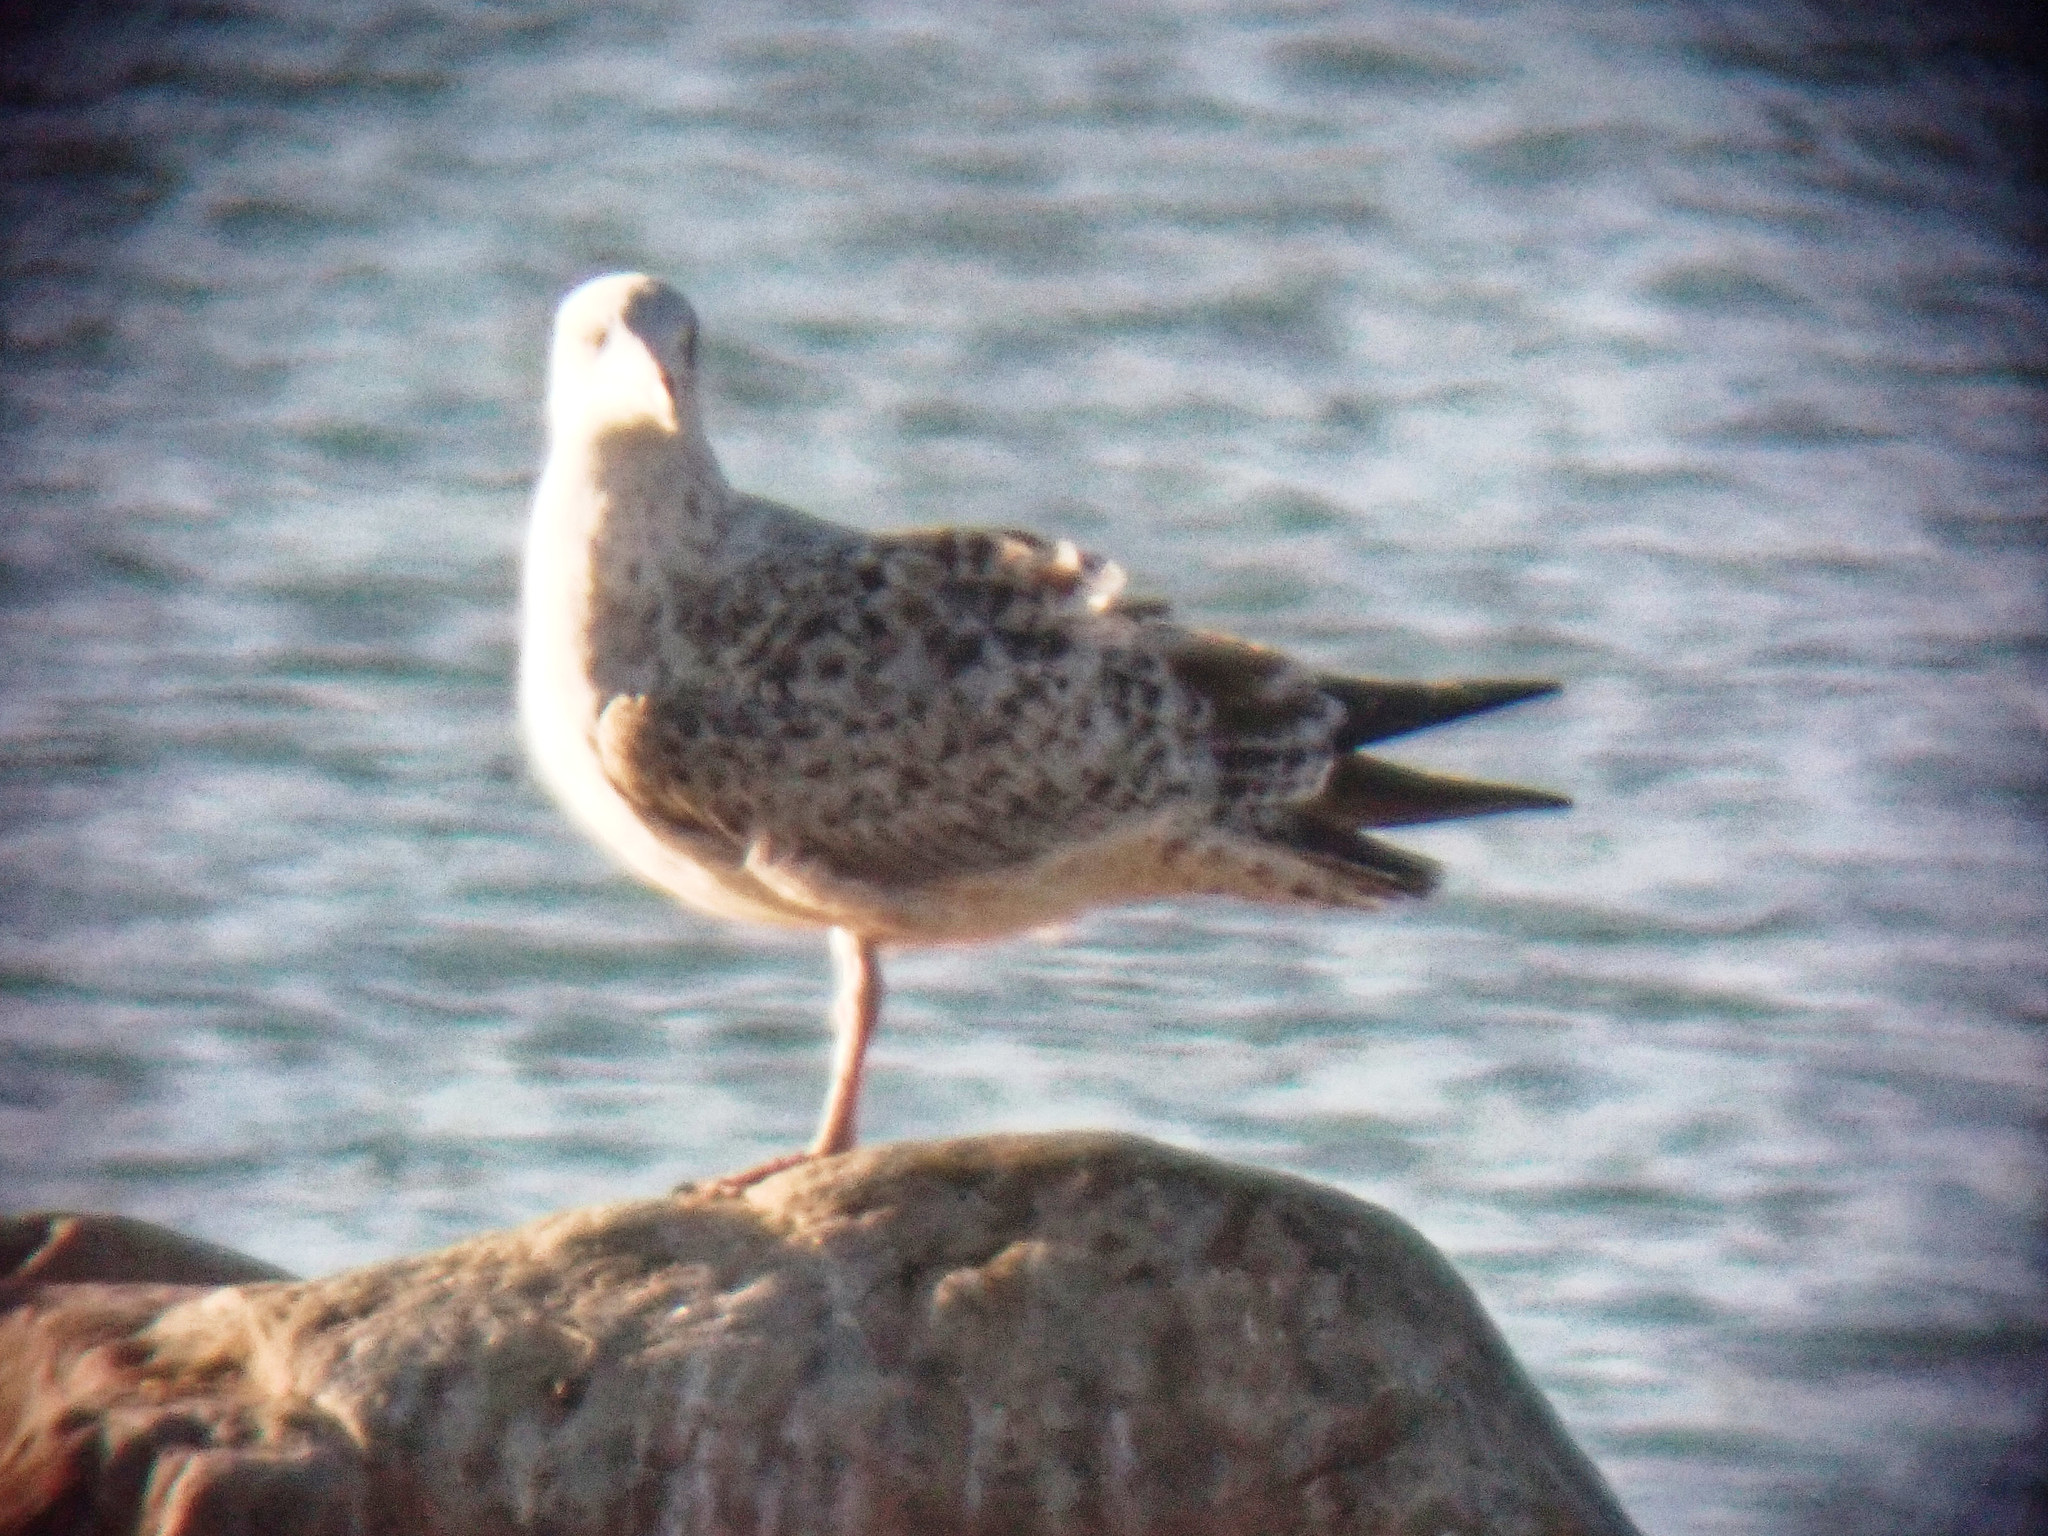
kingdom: Animalia
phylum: Chordata
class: Aves
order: Charadriiformes
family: Laridae
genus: Larus
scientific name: Larus michahellis
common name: Yellow-legged gull
